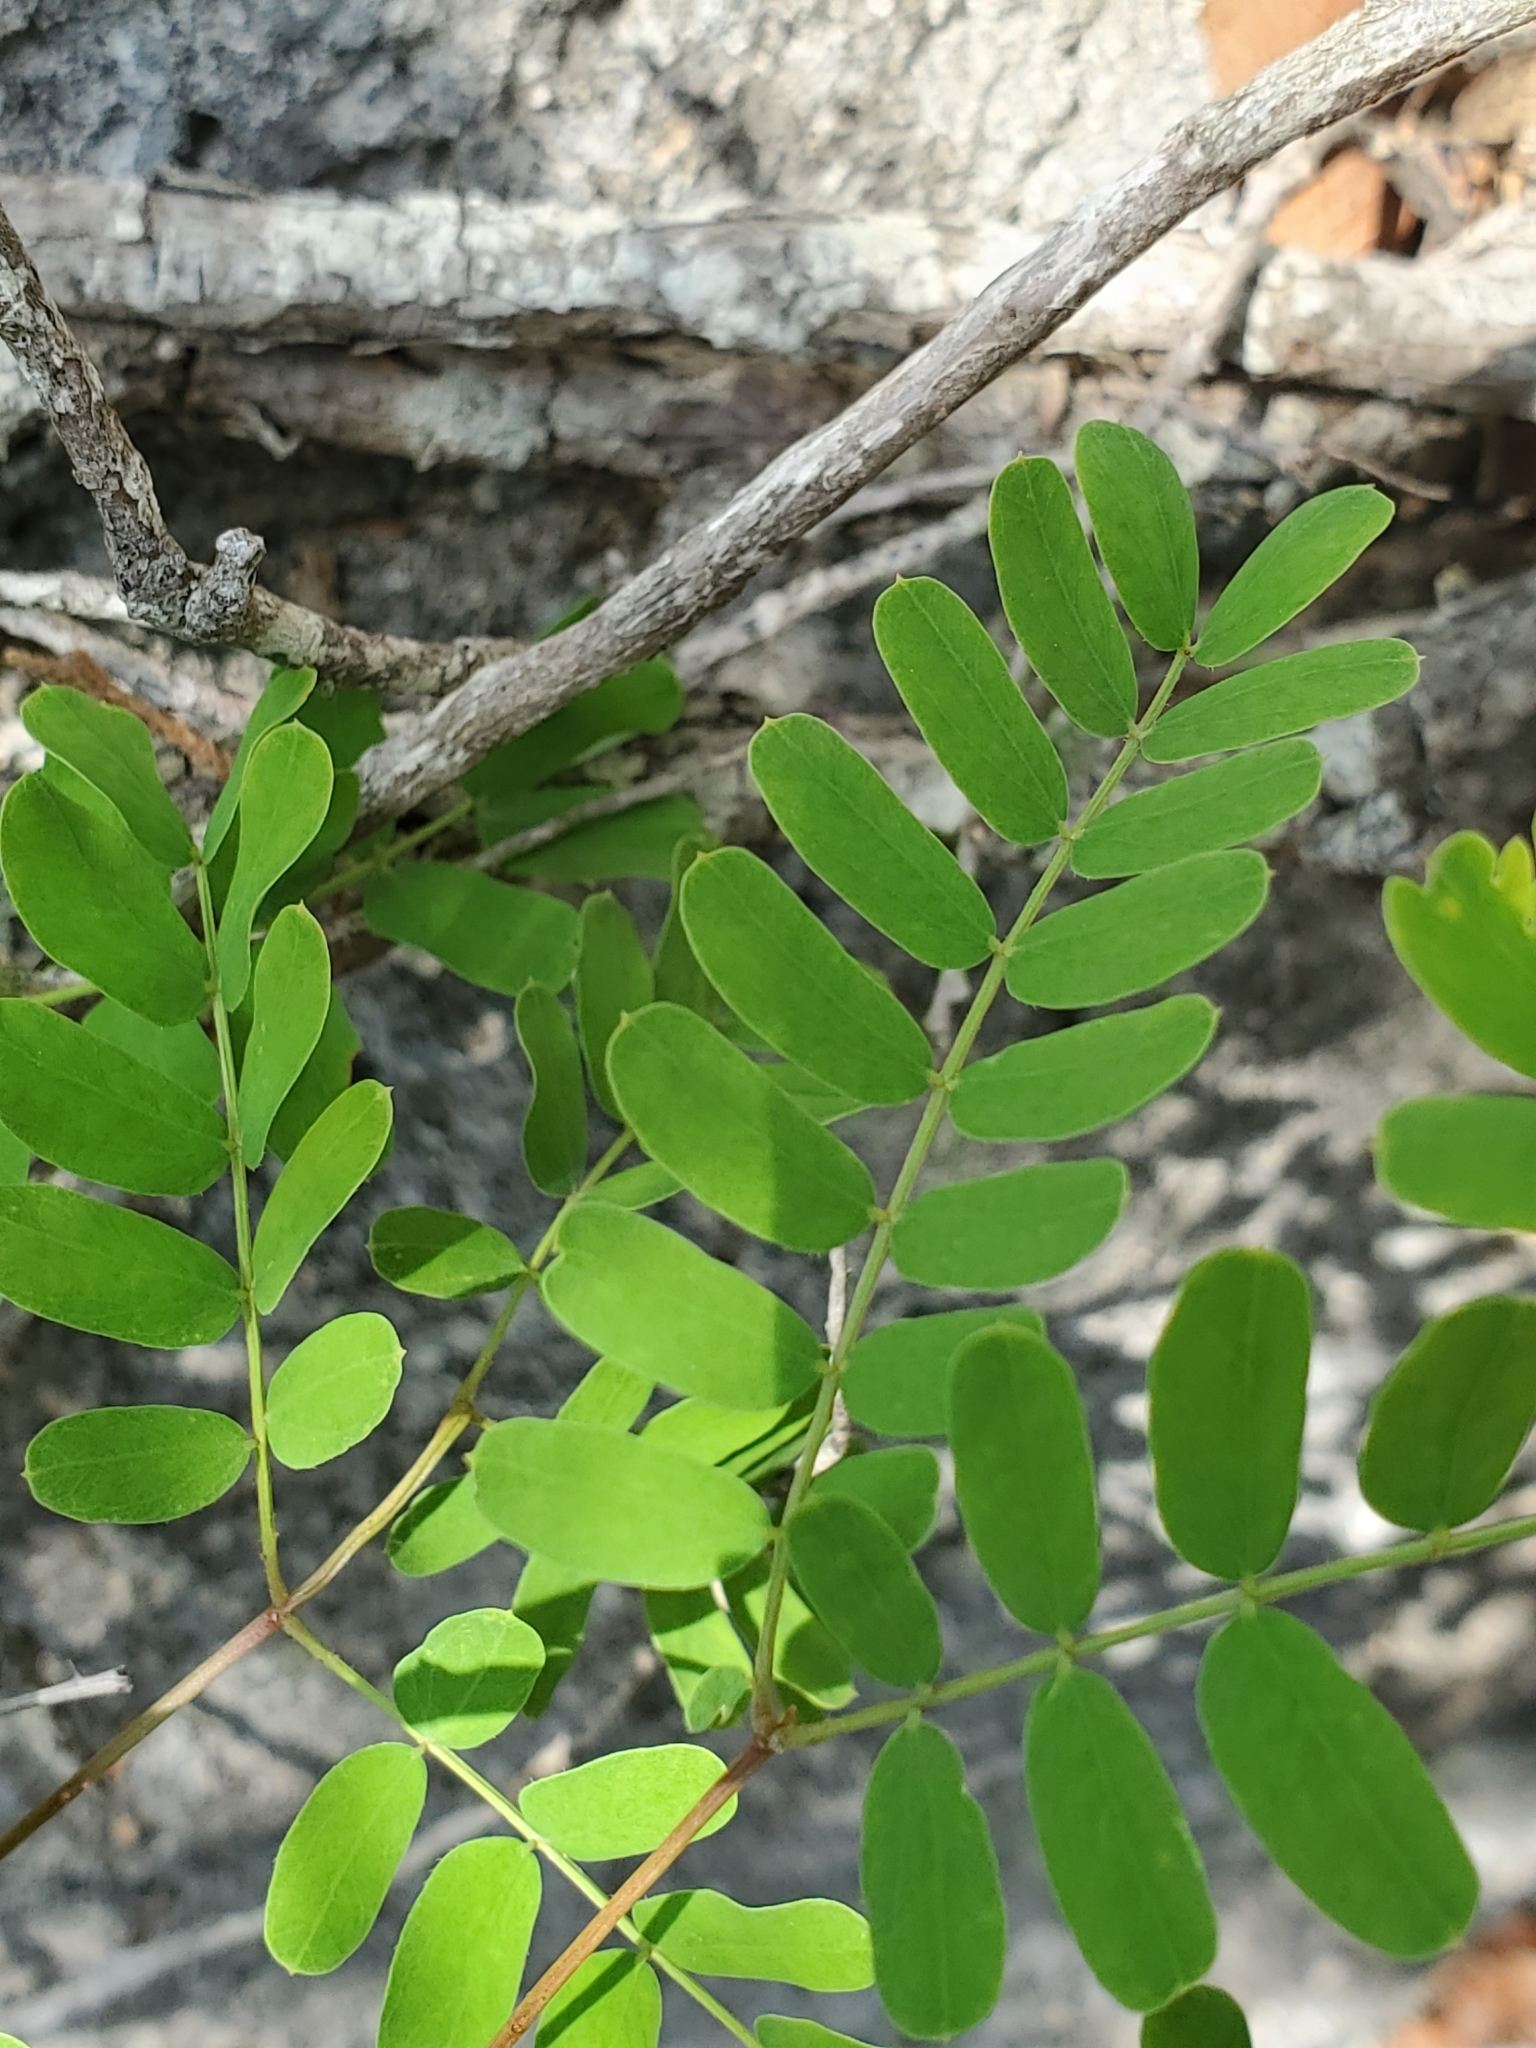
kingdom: Plantae
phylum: Tracheophyta
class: Magnoliopsida
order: Fabales
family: Fabaceae
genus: Senegalia
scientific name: Senegalia roemeriana
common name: Roemer's acacia
